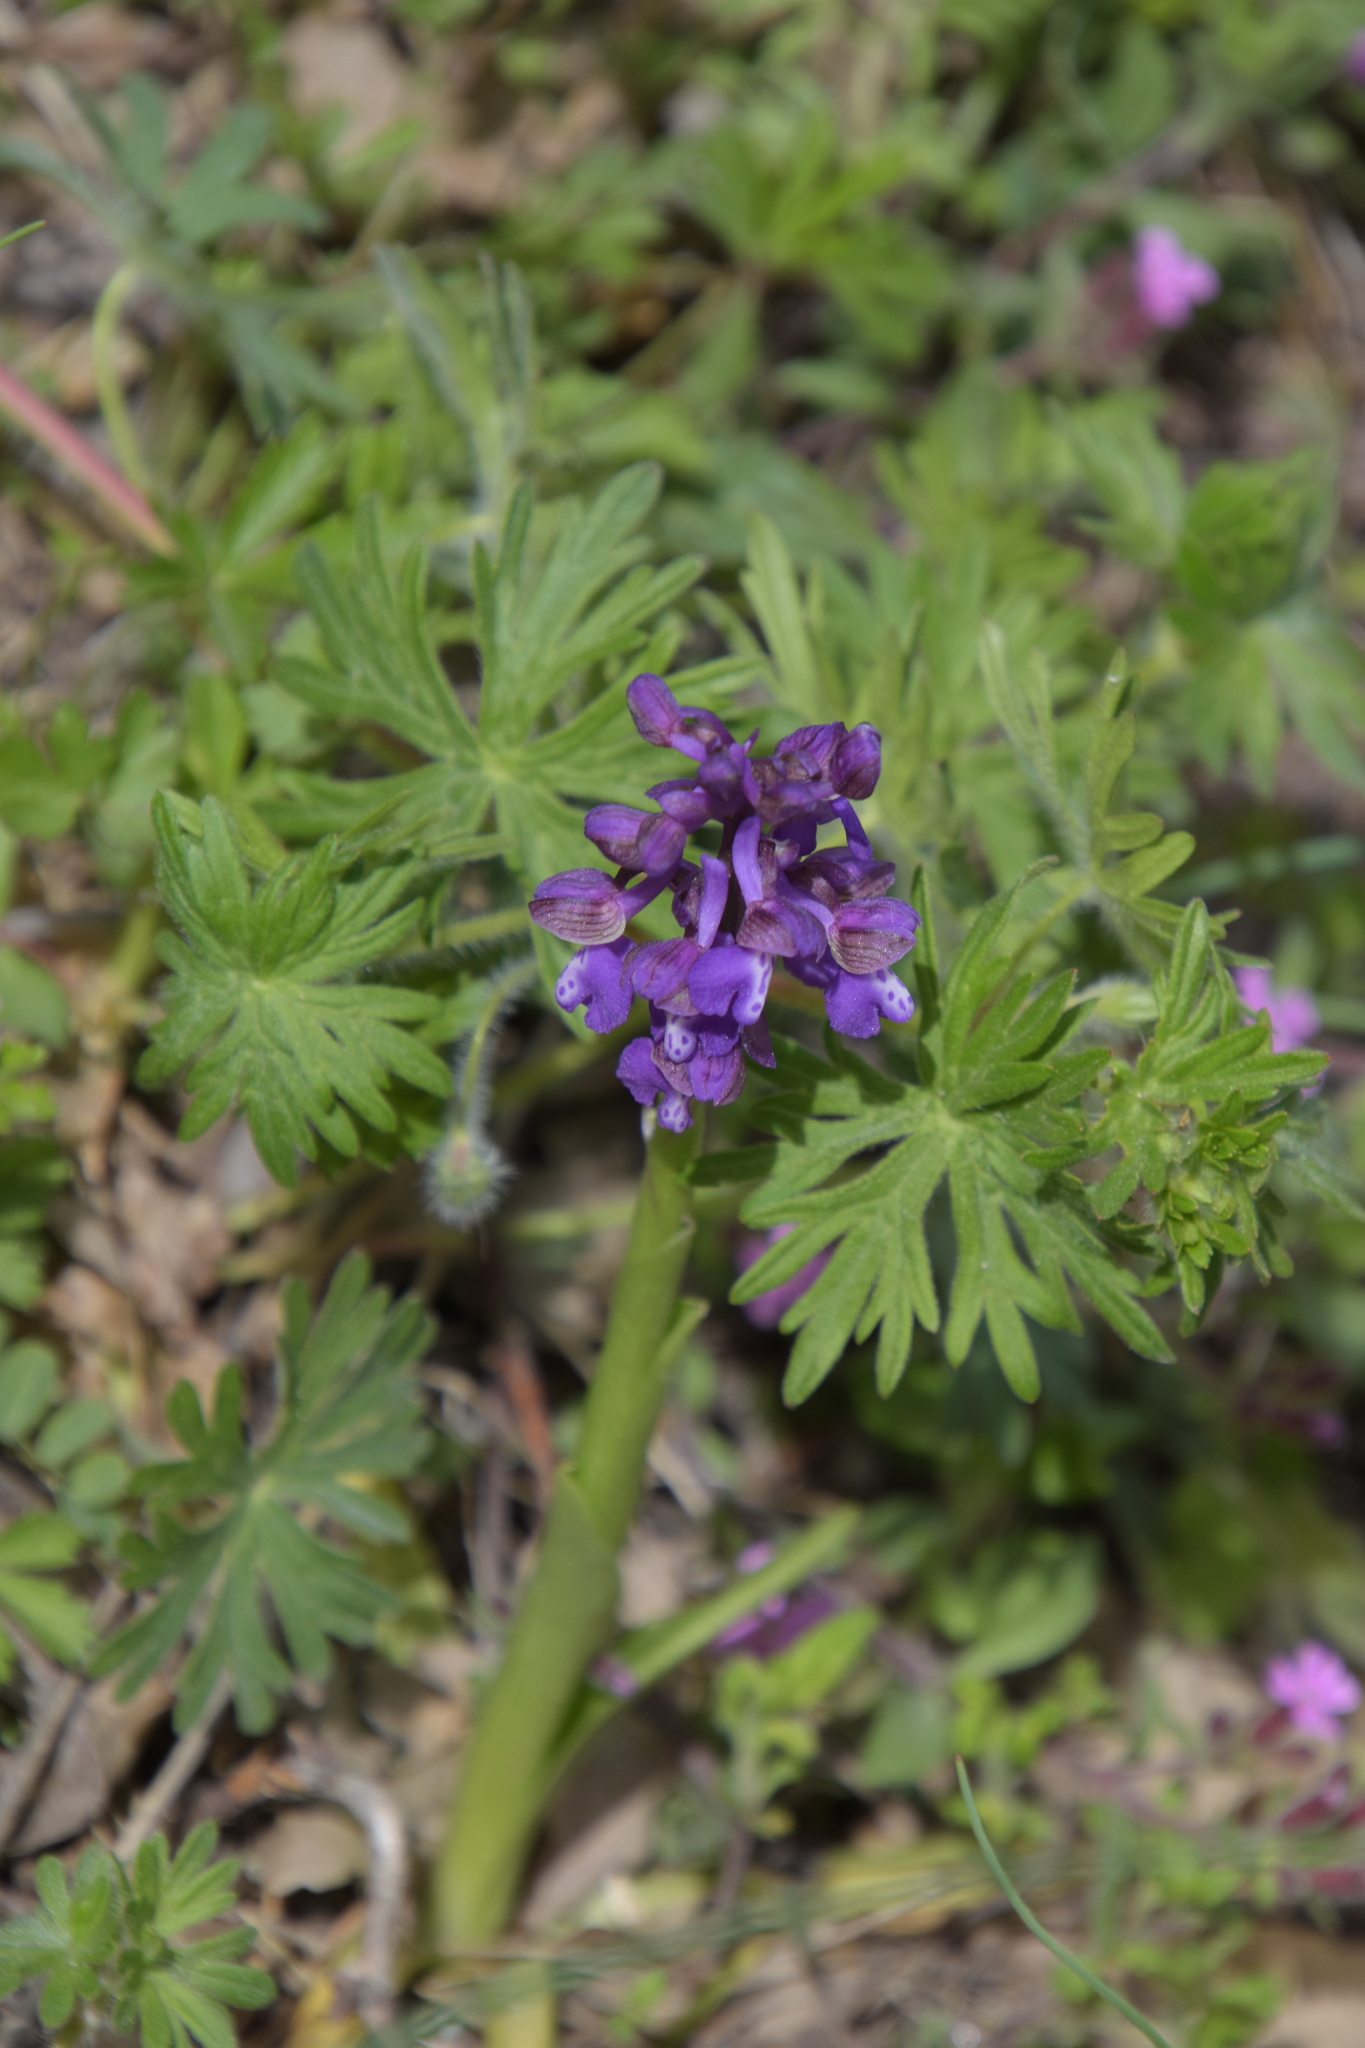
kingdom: Plantae
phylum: Tracheophyta
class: Liliopsida
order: Asparagales
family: Orchidaceae
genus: Anacamptis
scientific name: Anacamptis morio
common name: Green-winged orchid
